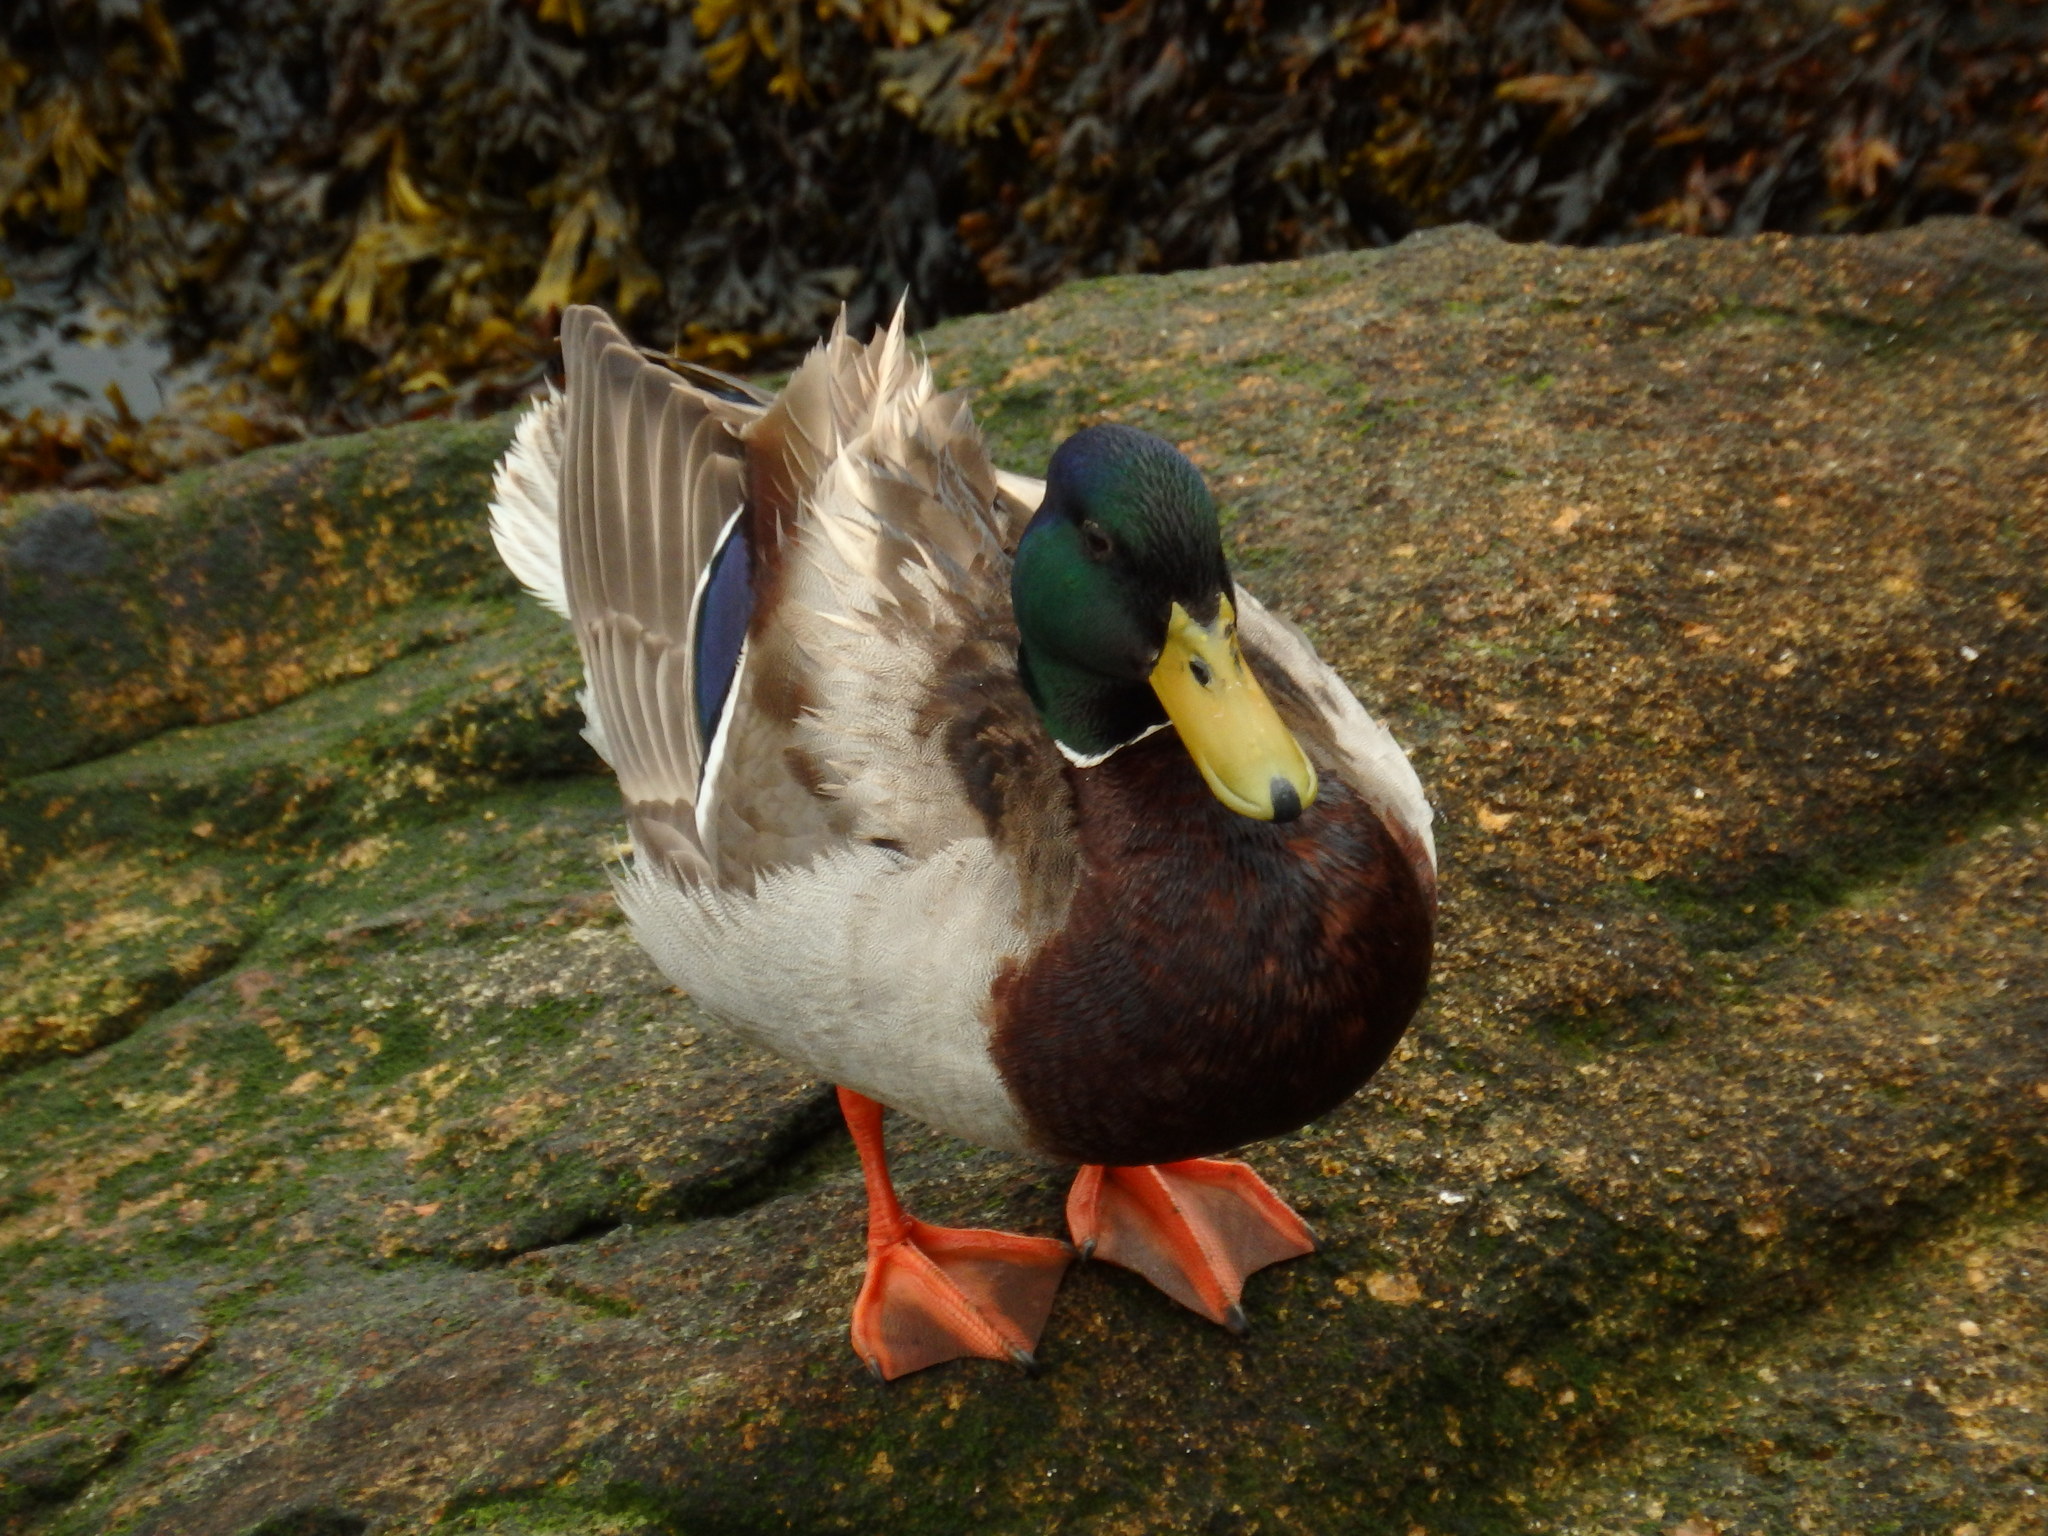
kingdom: Animalia
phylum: Chordata
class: Aves
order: Anseriformes
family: Anatidae
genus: Anas
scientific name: Anas platyrhynchos
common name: Mallard
